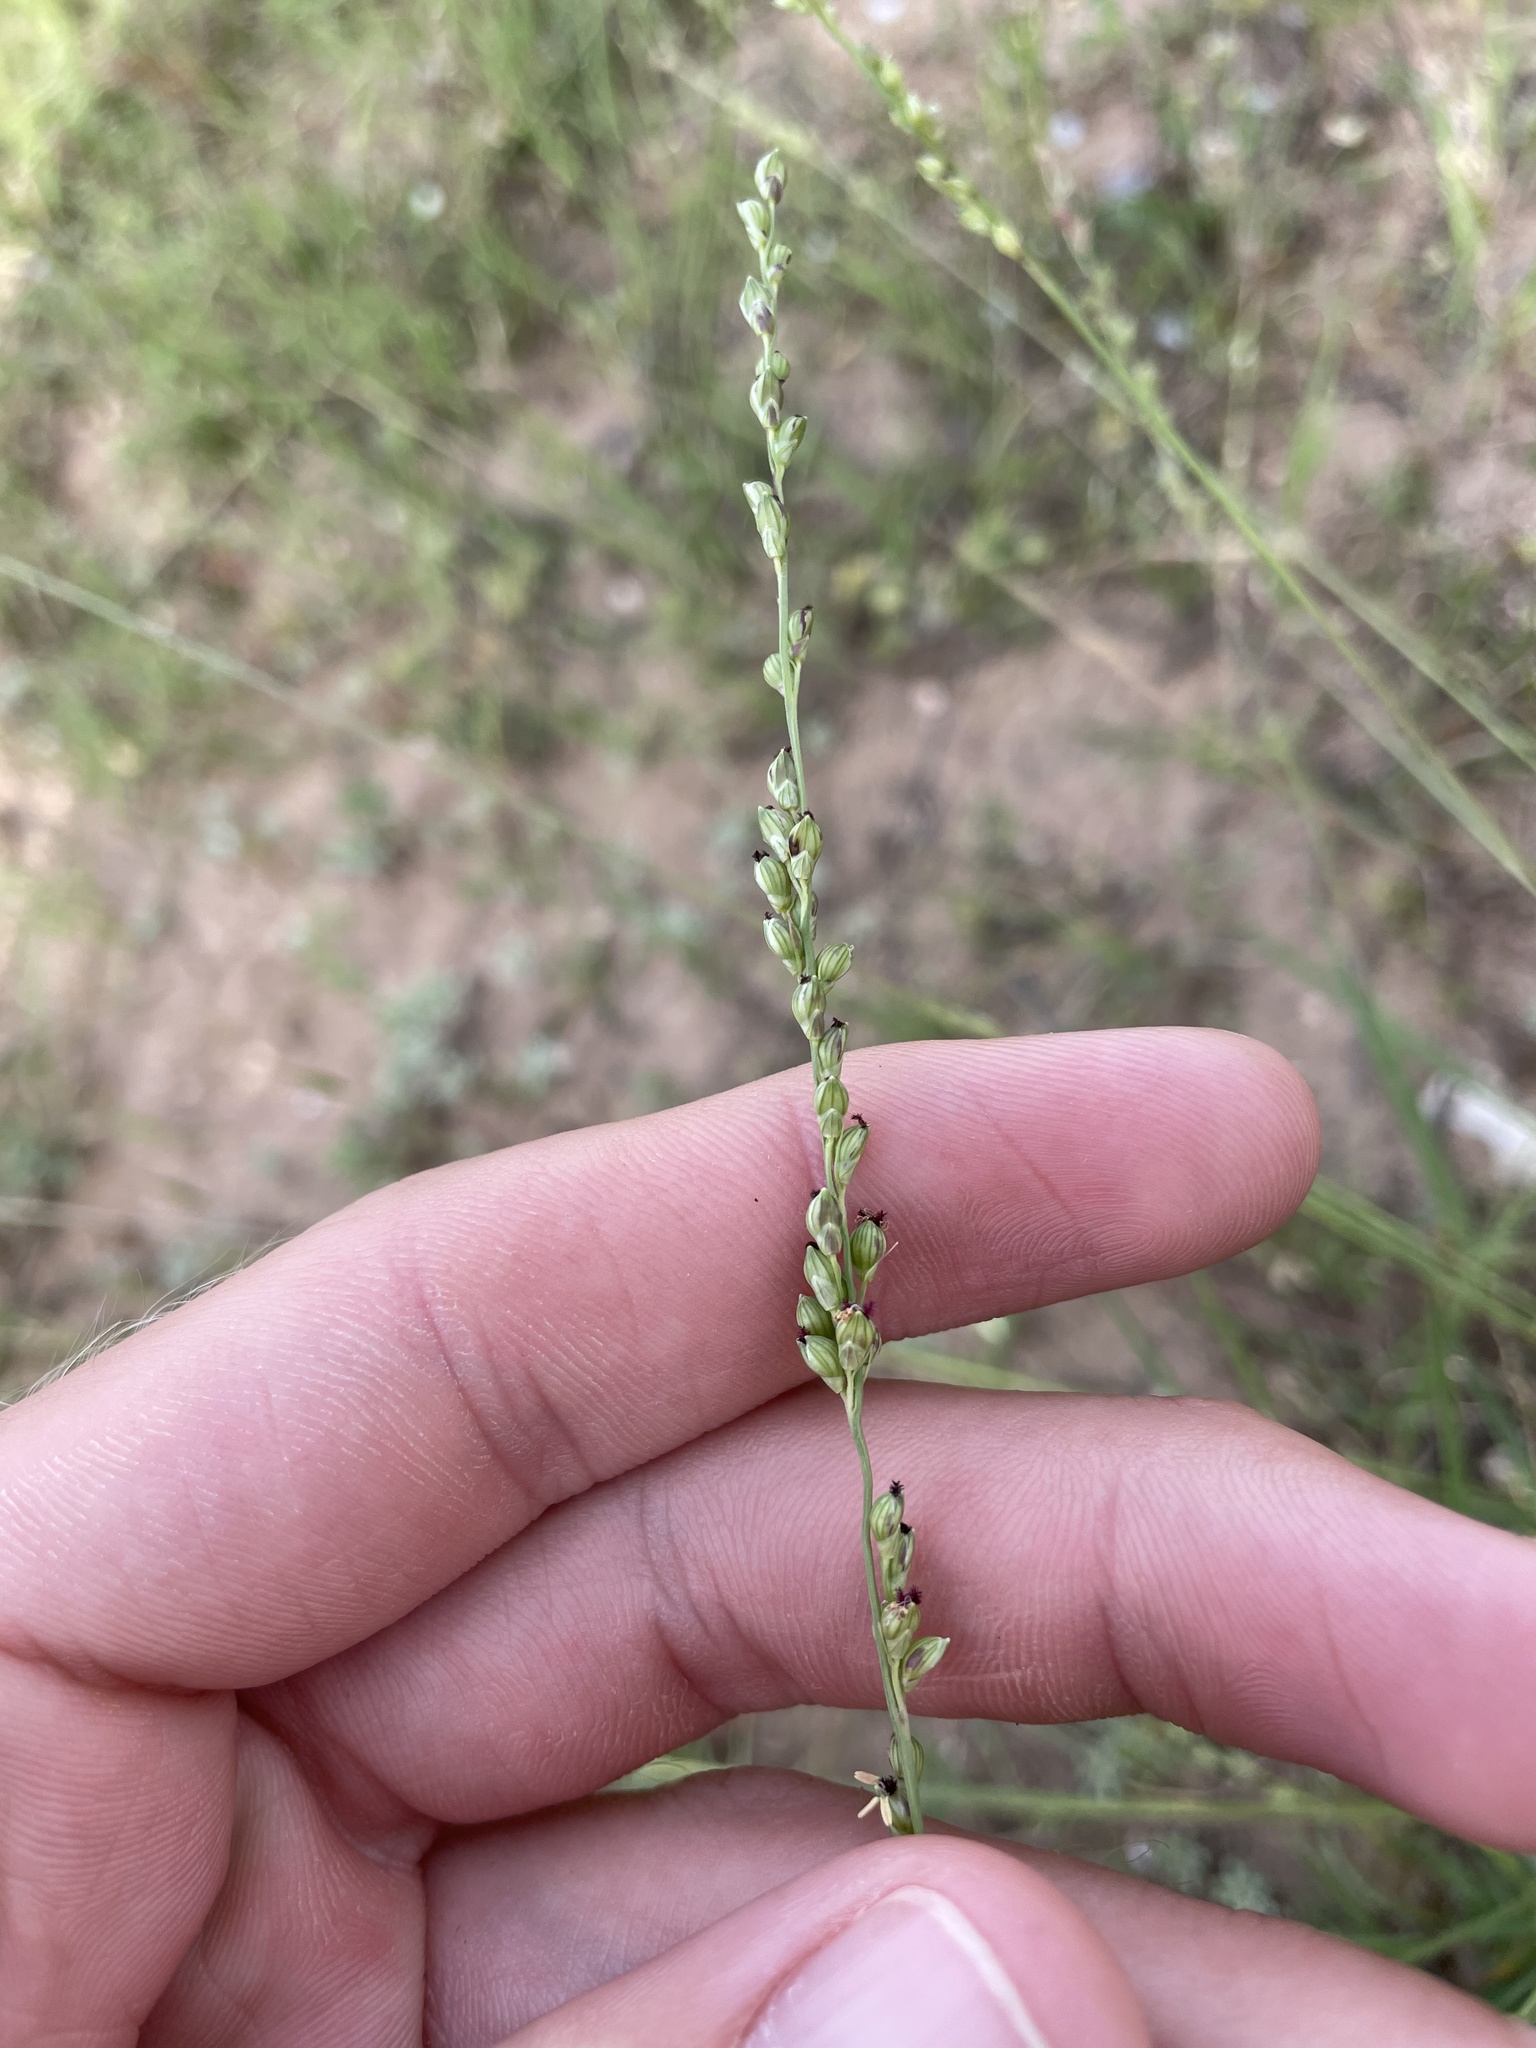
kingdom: Plantae
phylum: Tracheophyta
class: Liliopsida
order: Poales
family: Poaceae
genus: Setaria
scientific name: Setaria reverchonii
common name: Reverchon's bristle grass
